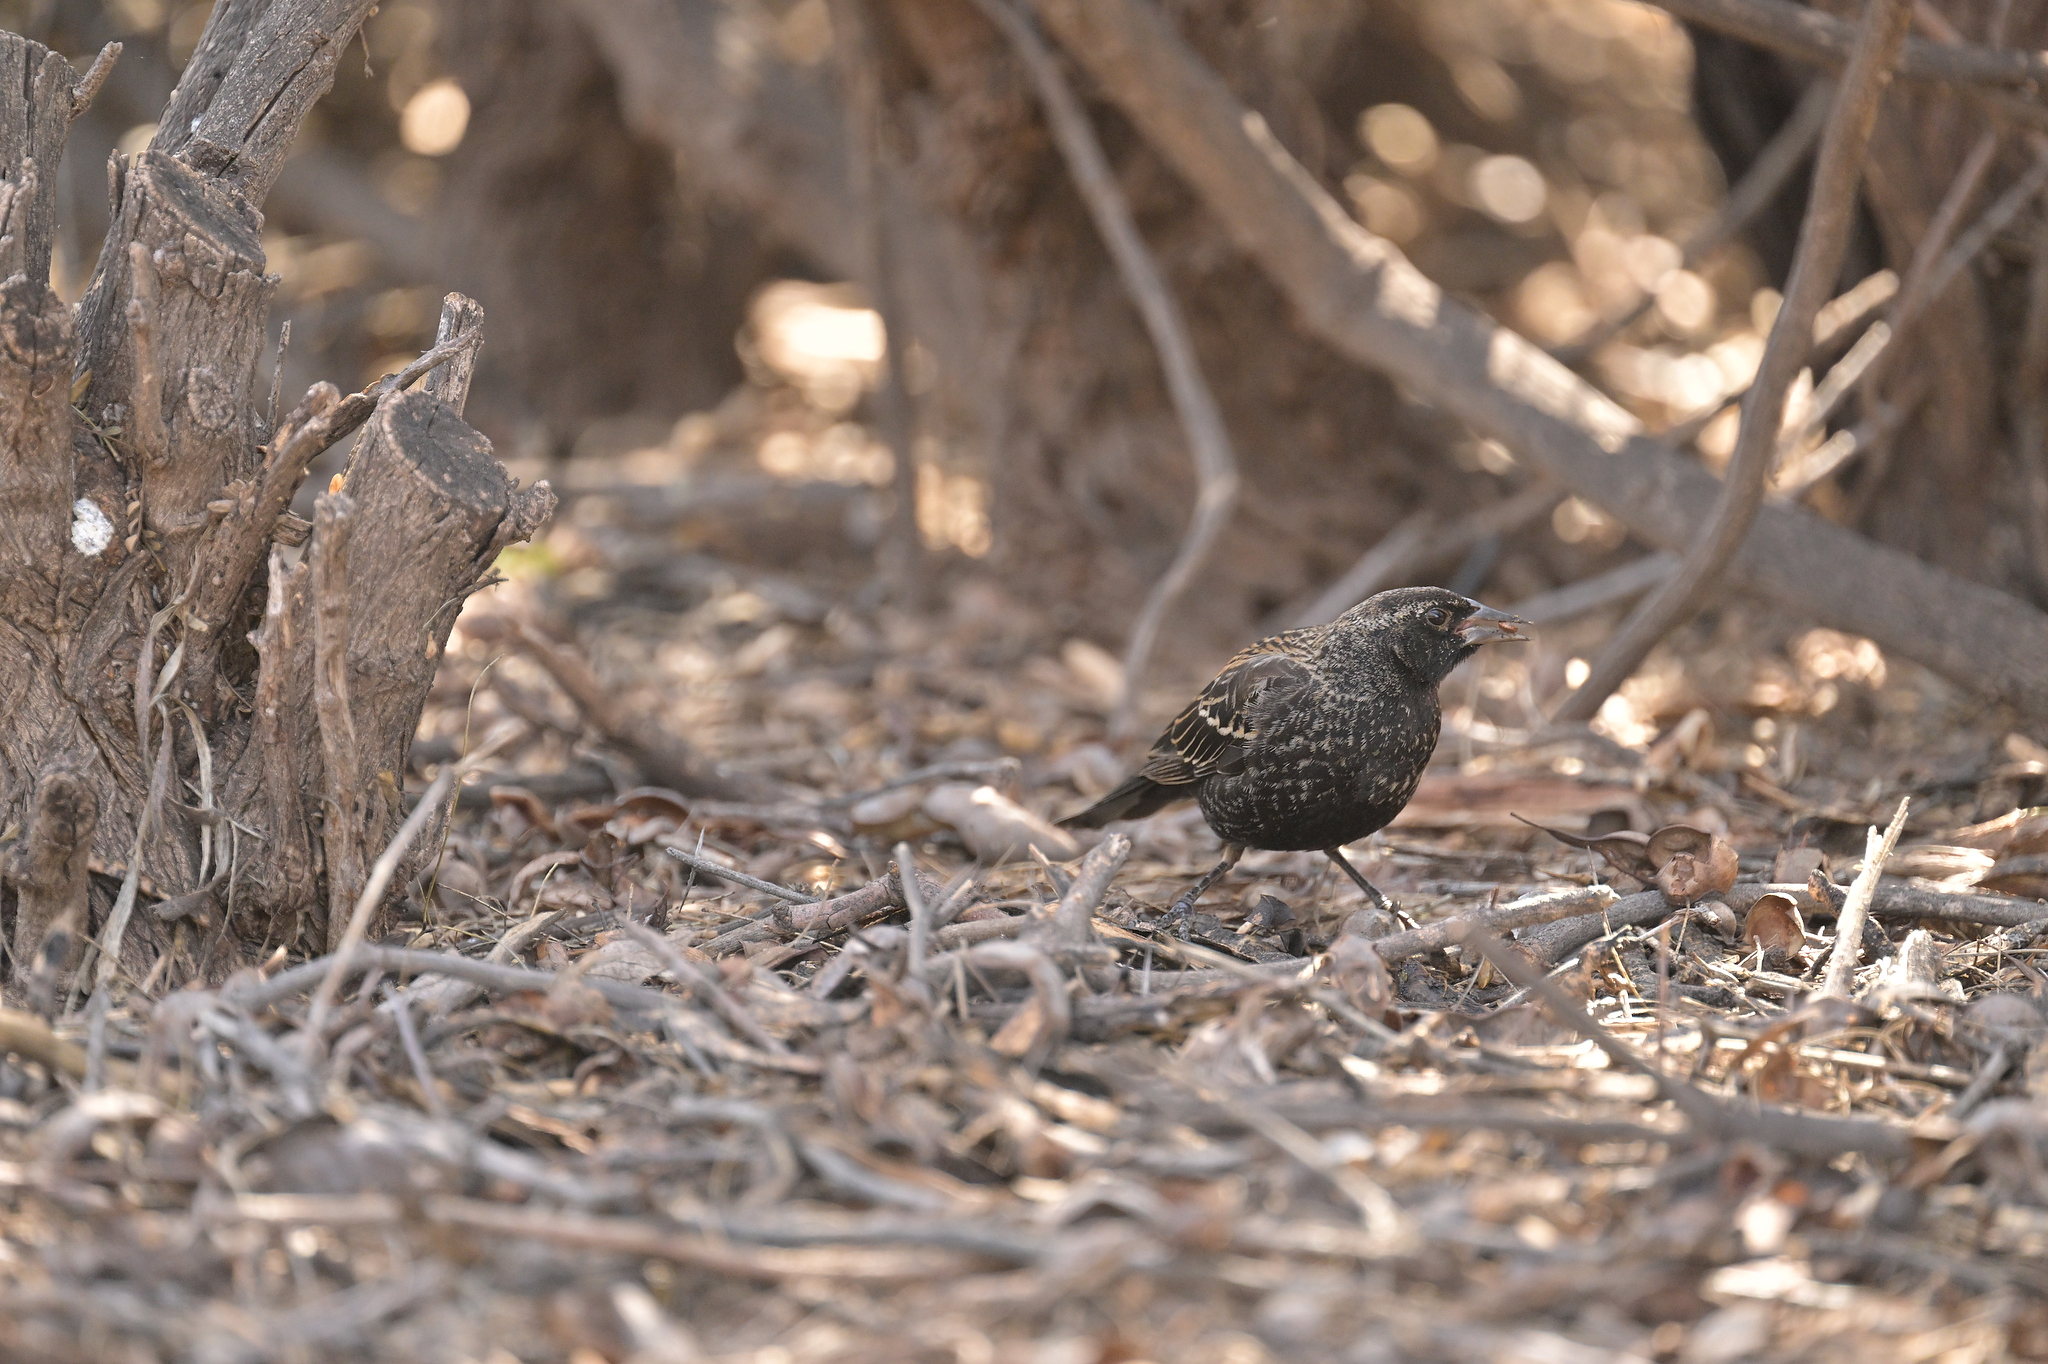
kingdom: Animalia
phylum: Chordata
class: Aves
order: Passeriformes
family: Icteridae
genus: Agelaius
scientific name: Agelaius phoeniceus
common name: Red-winged blackbird
